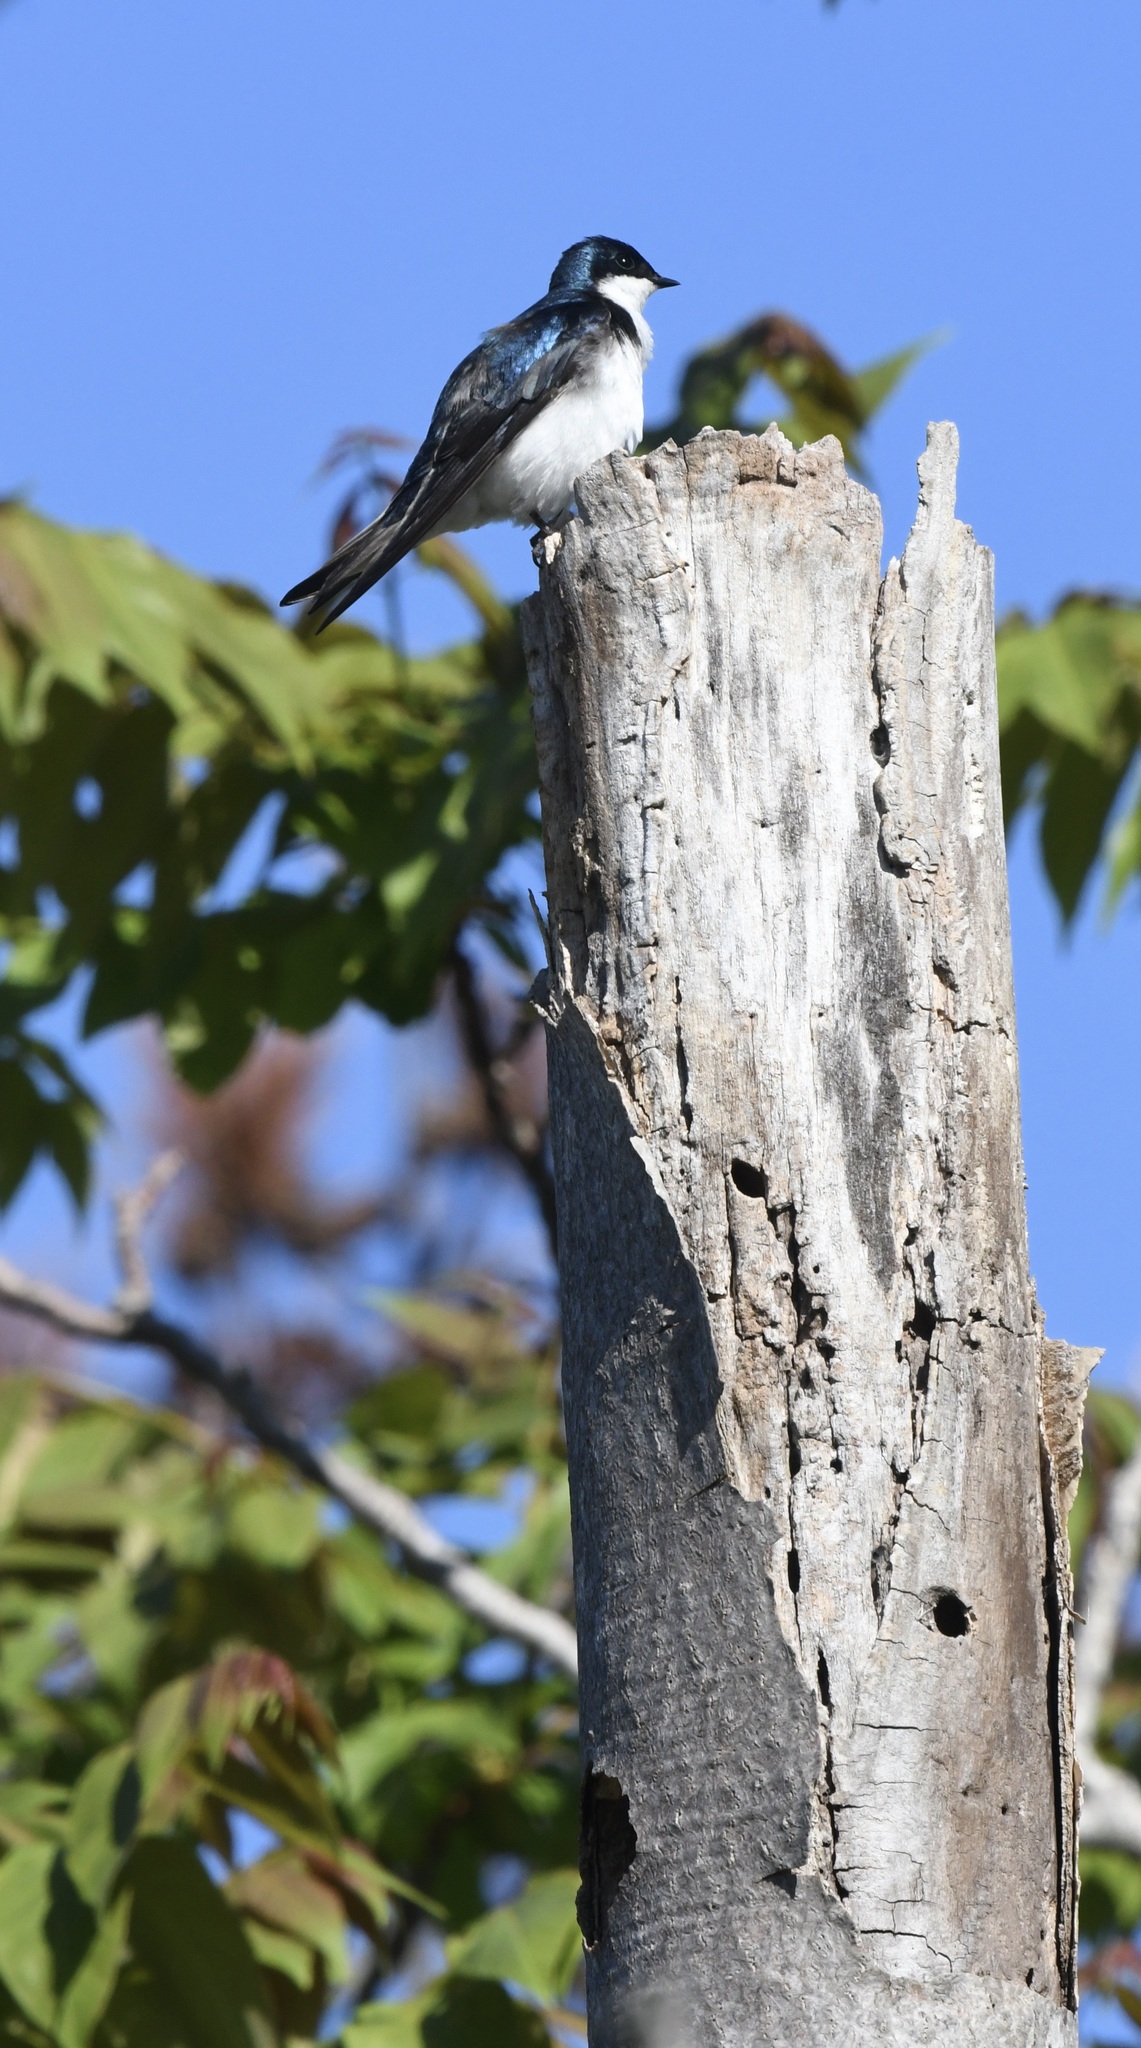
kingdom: Animalia
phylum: Chordata
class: Aves
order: Passeriformes
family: Hirundinidae
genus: Tachycineta
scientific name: Tachycineta bicolor
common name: Tree swallow
